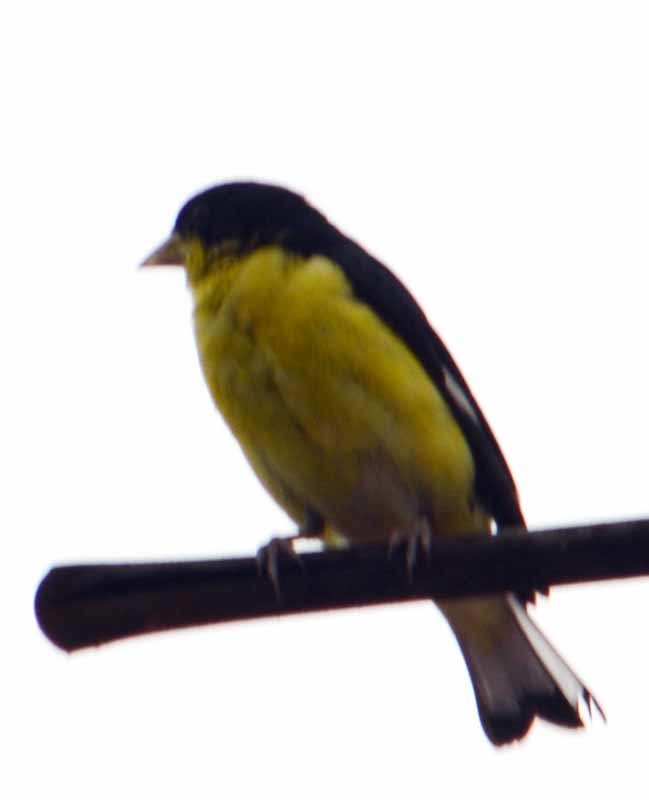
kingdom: Animalia
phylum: Chordata
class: Aves
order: Passeriformes
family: Fringillidae
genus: Spinus
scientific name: Spinus psaltria
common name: Lesser goldfinch
